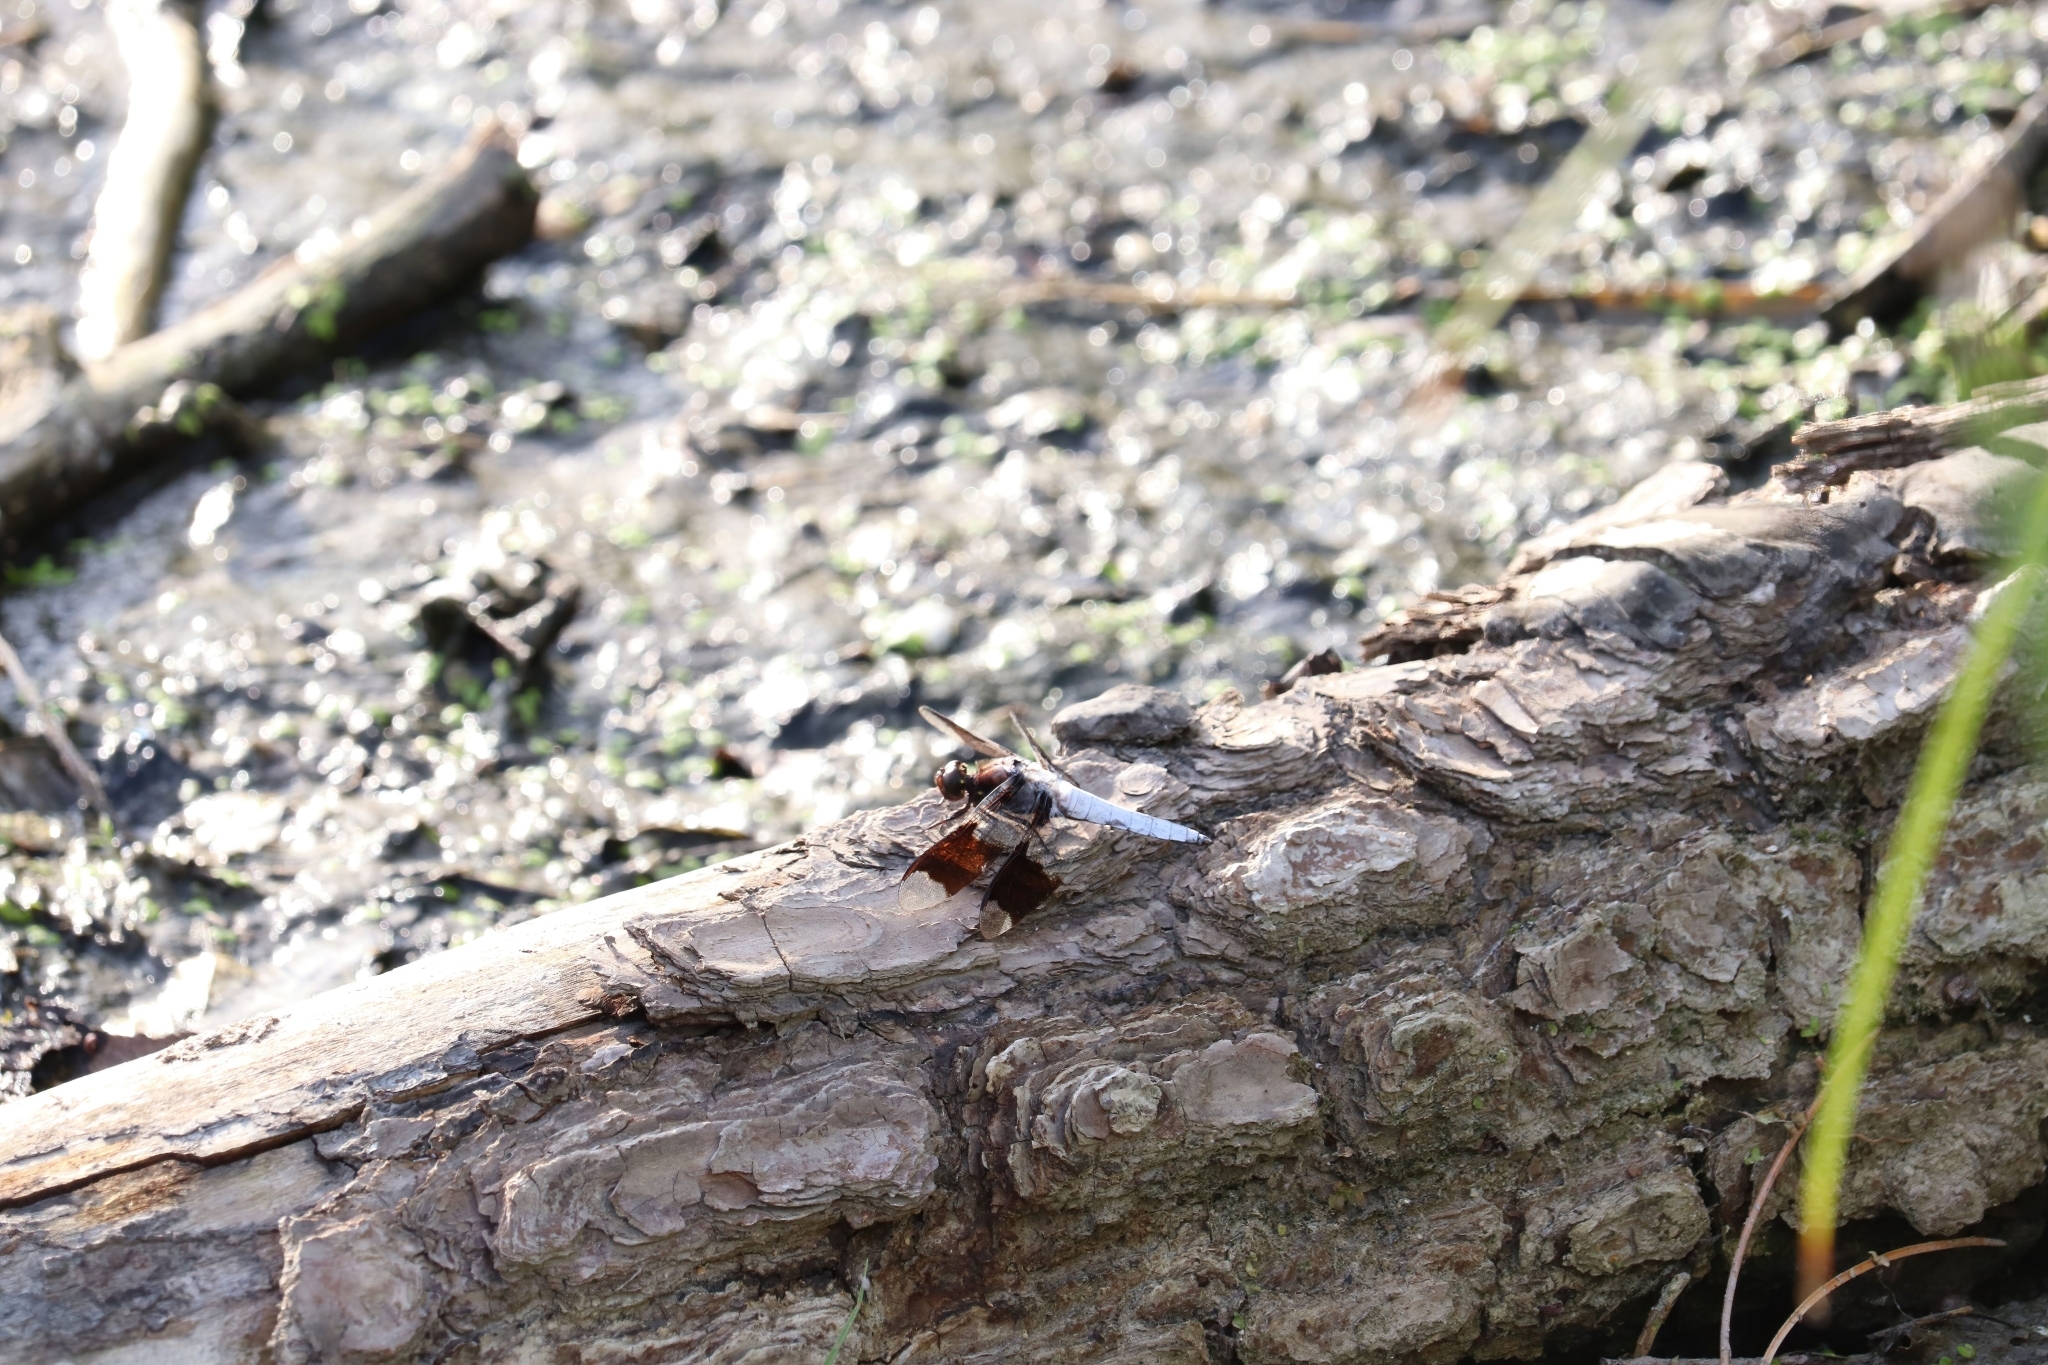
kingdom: Animalia
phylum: Arthropoda
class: Insecta
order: Odonata
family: Libellulidae
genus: Plathemis
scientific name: Plathemis lydia
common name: Common whitetail
